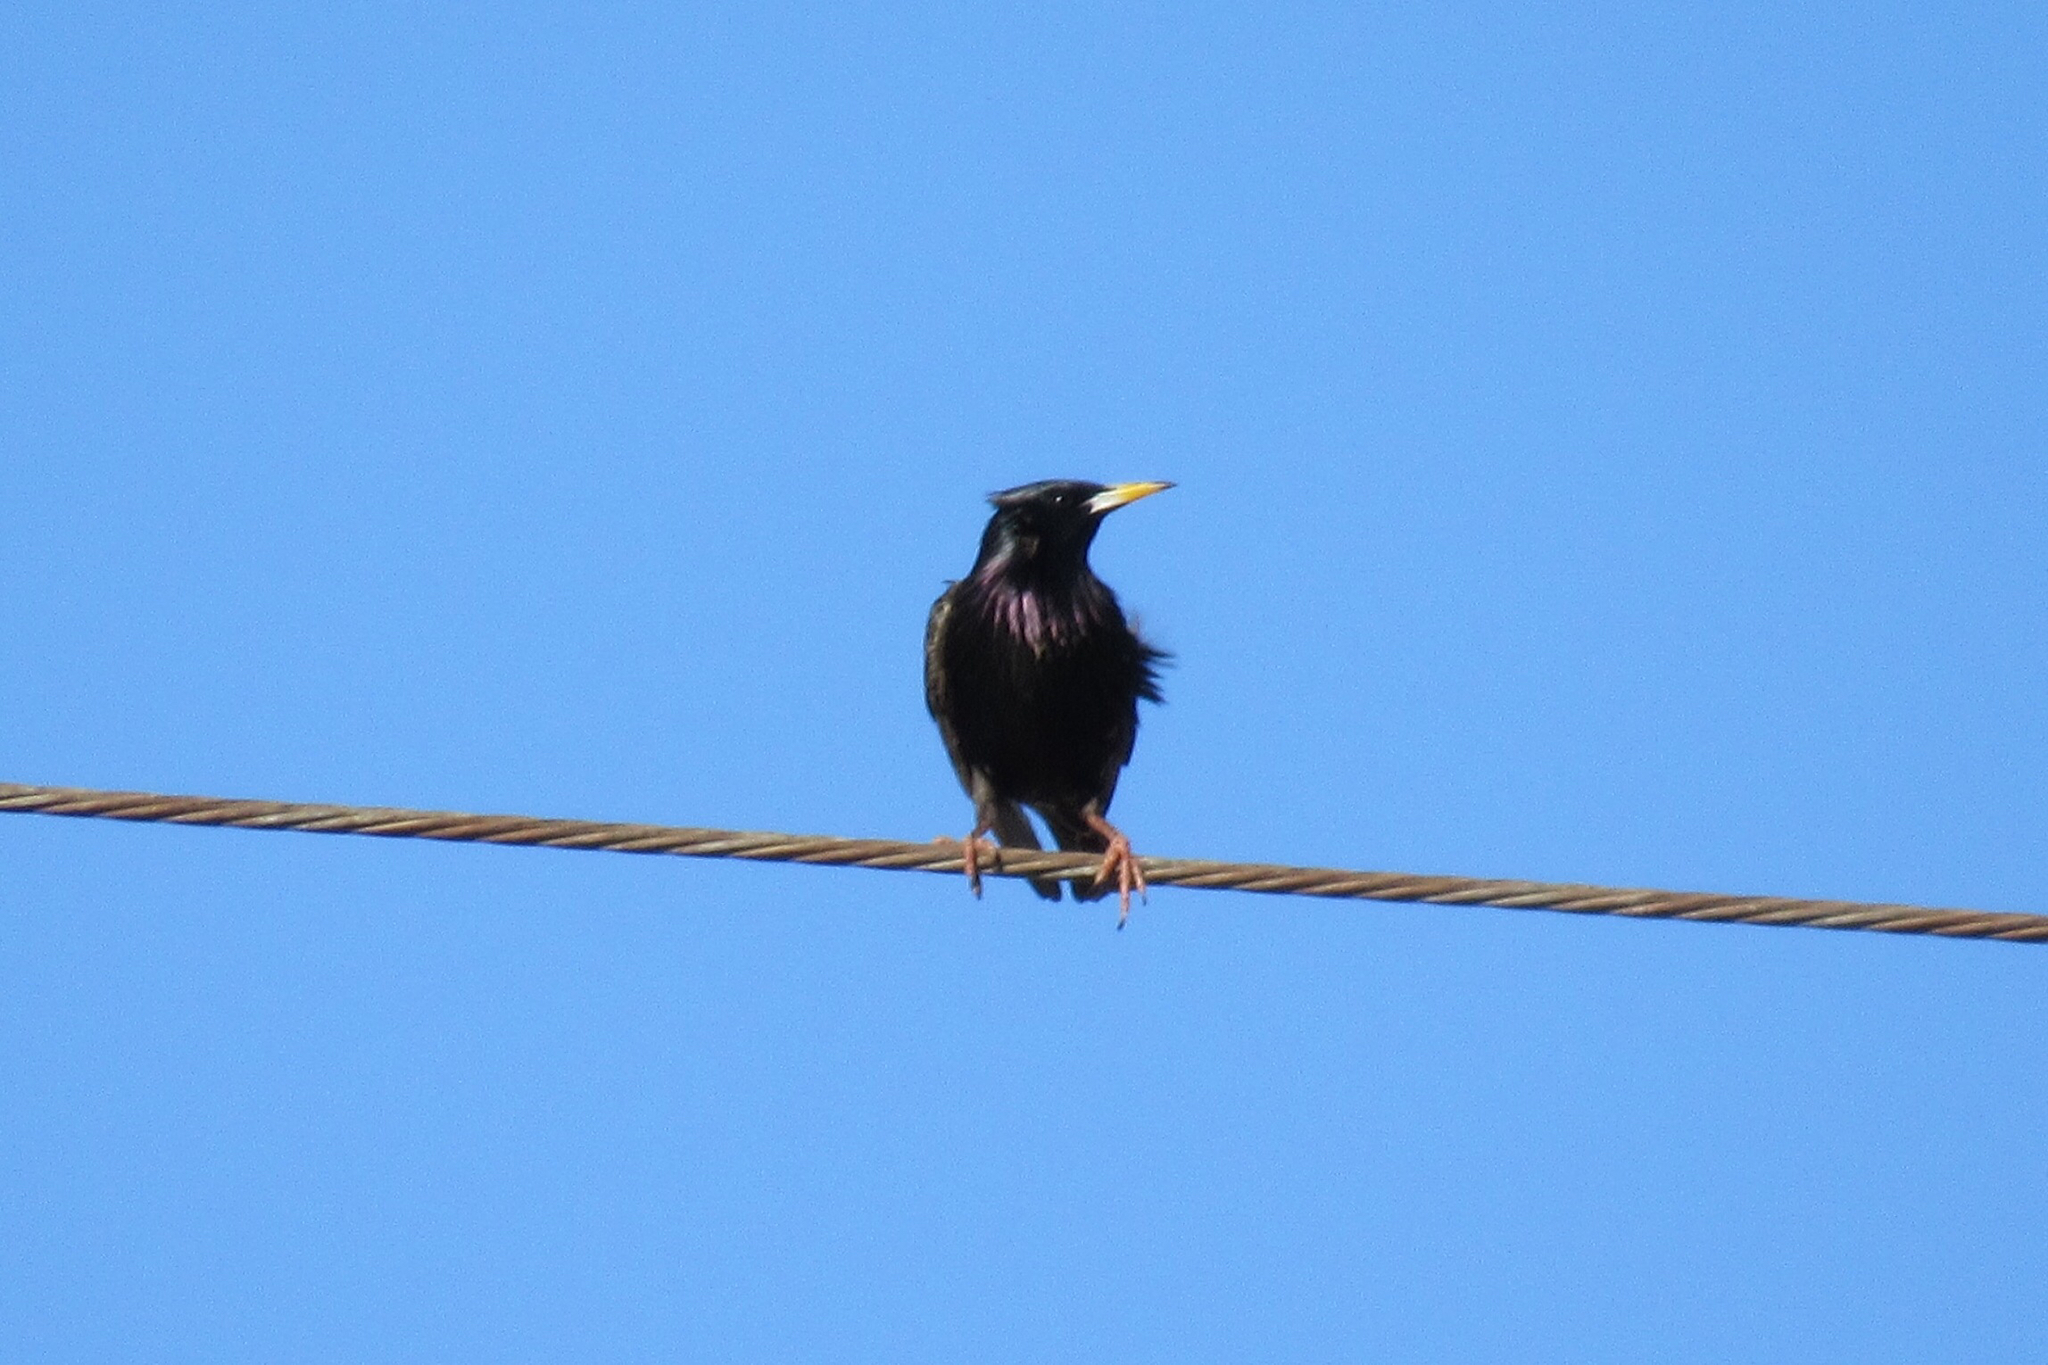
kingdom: Animalia
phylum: Chordata
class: Aves
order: Passeriformes
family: Sturnidae
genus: Sturnus
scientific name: Sturnus vulgaris
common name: Common starling
